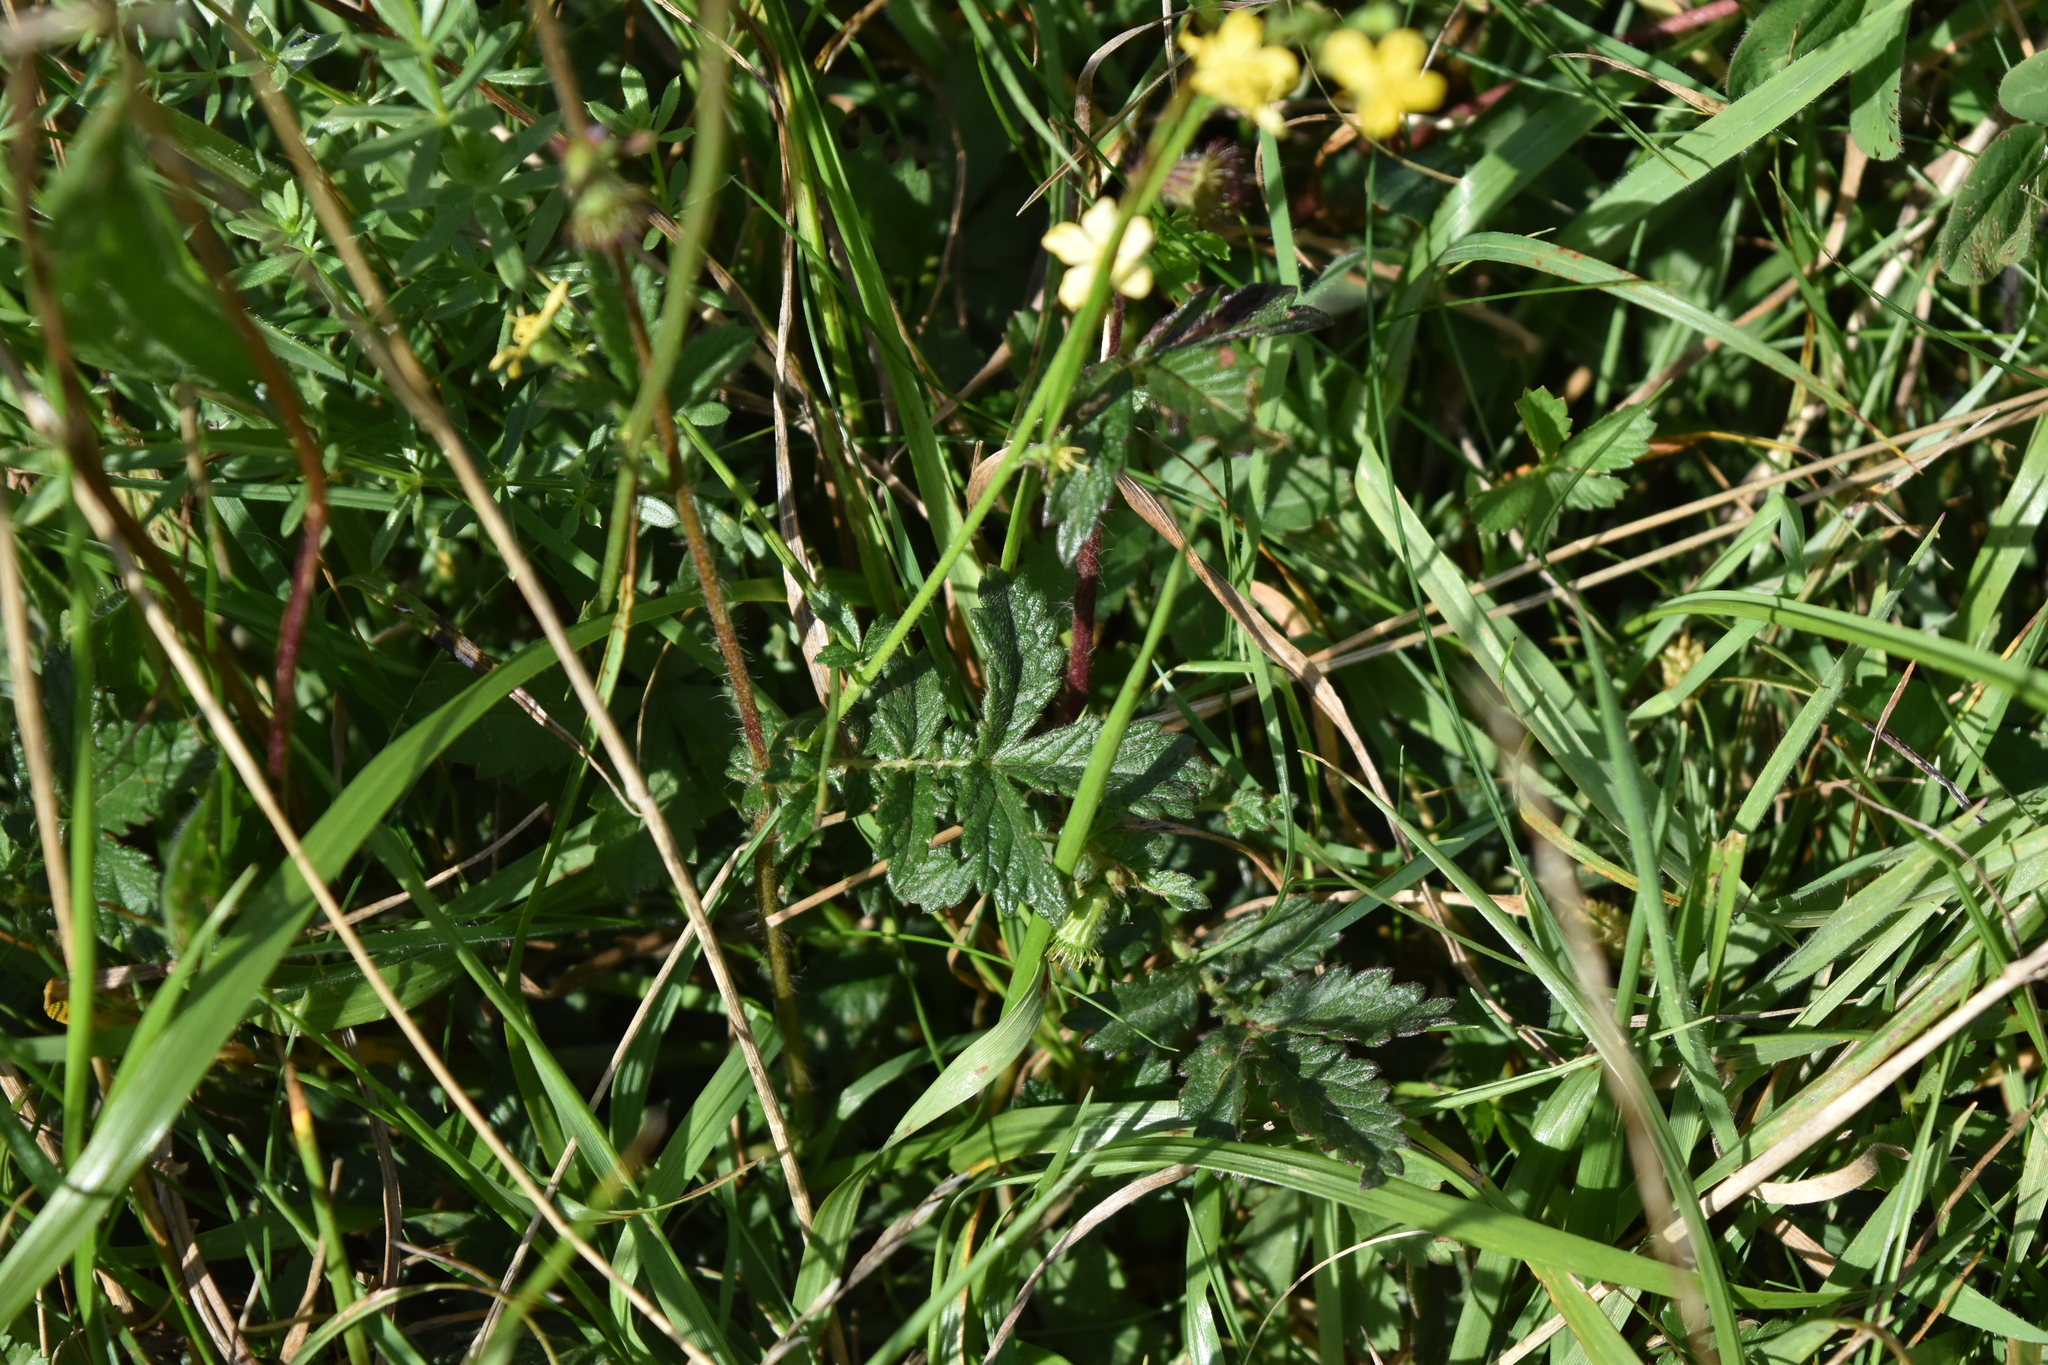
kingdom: Plantae
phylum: Tracheophyta
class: Magnoliopsida
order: Rosales
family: Rosaceae
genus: Agrimonia
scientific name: Agrimonia eupatoria
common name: Agrimony
